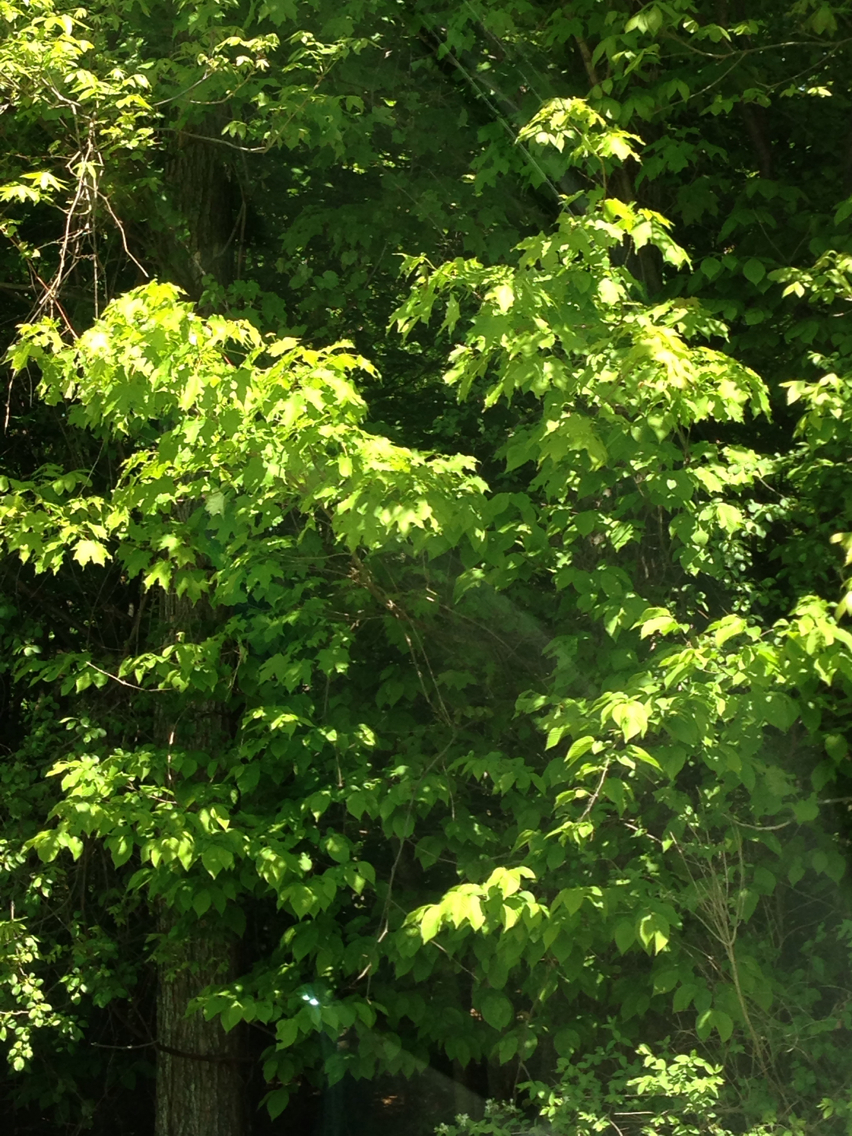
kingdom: Plantae
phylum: Tracheophyta
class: Magnoliopsida
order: Sapindales
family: Sapindaceae
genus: Acer
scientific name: Acer saccharum
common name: Sugar maple
